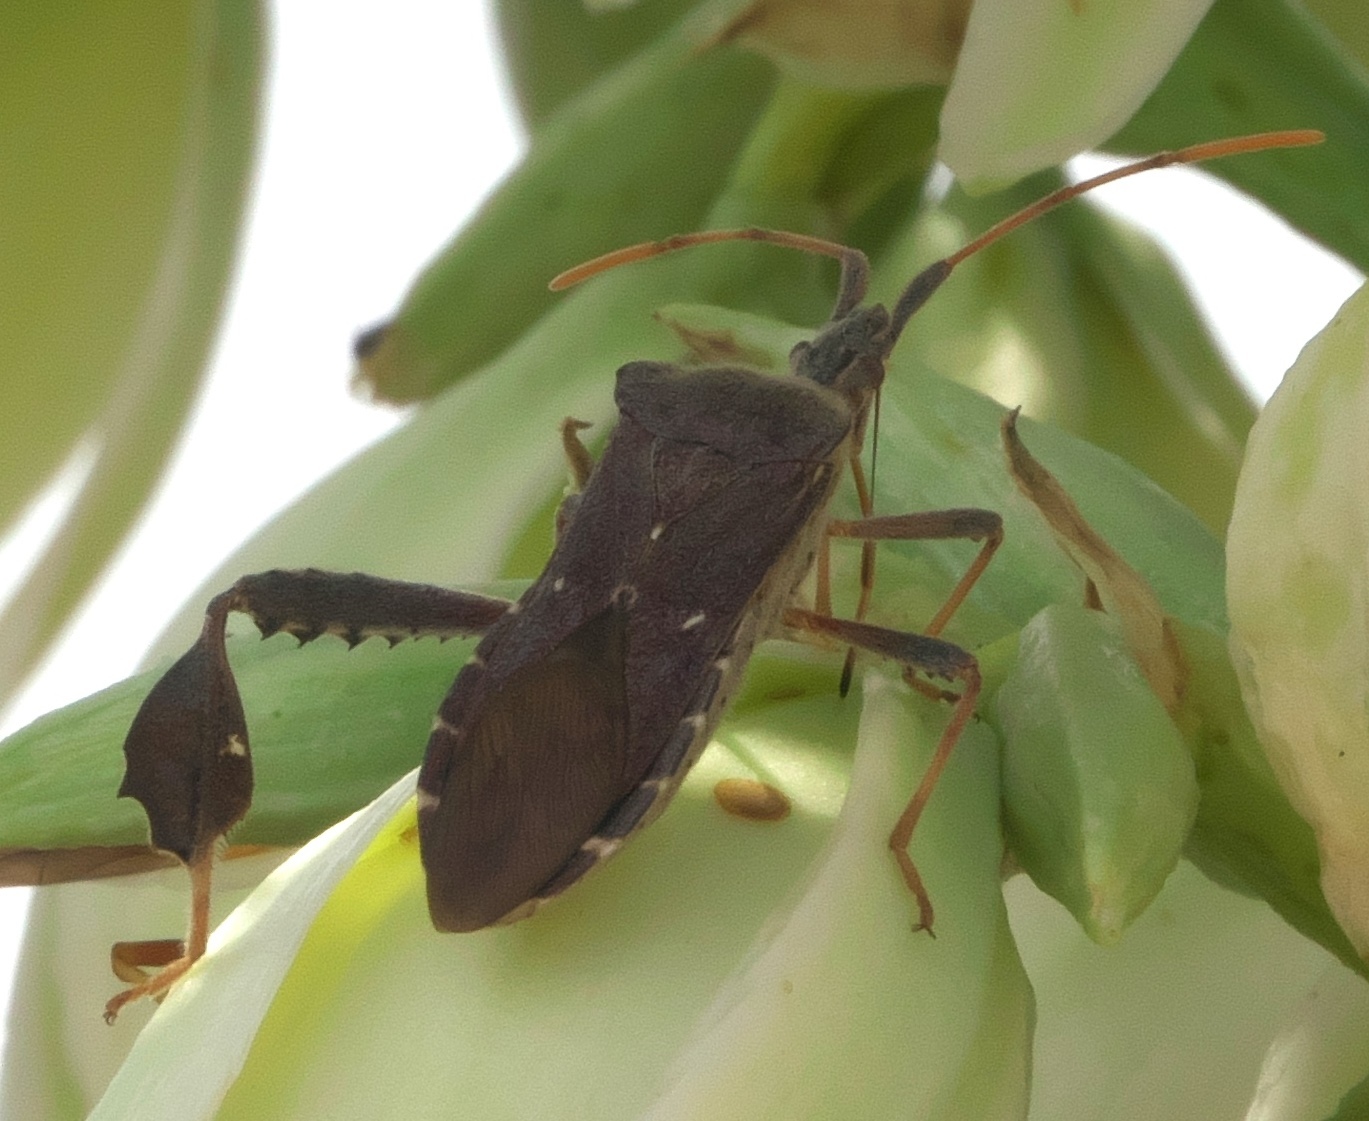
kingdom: Animalia
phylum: Arthropoda
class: Insecta
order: Hemiptera
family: Coreidae
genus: Leptoglossus
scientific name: Leptoglossus oppositus
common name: Northern leaf-footed bug
